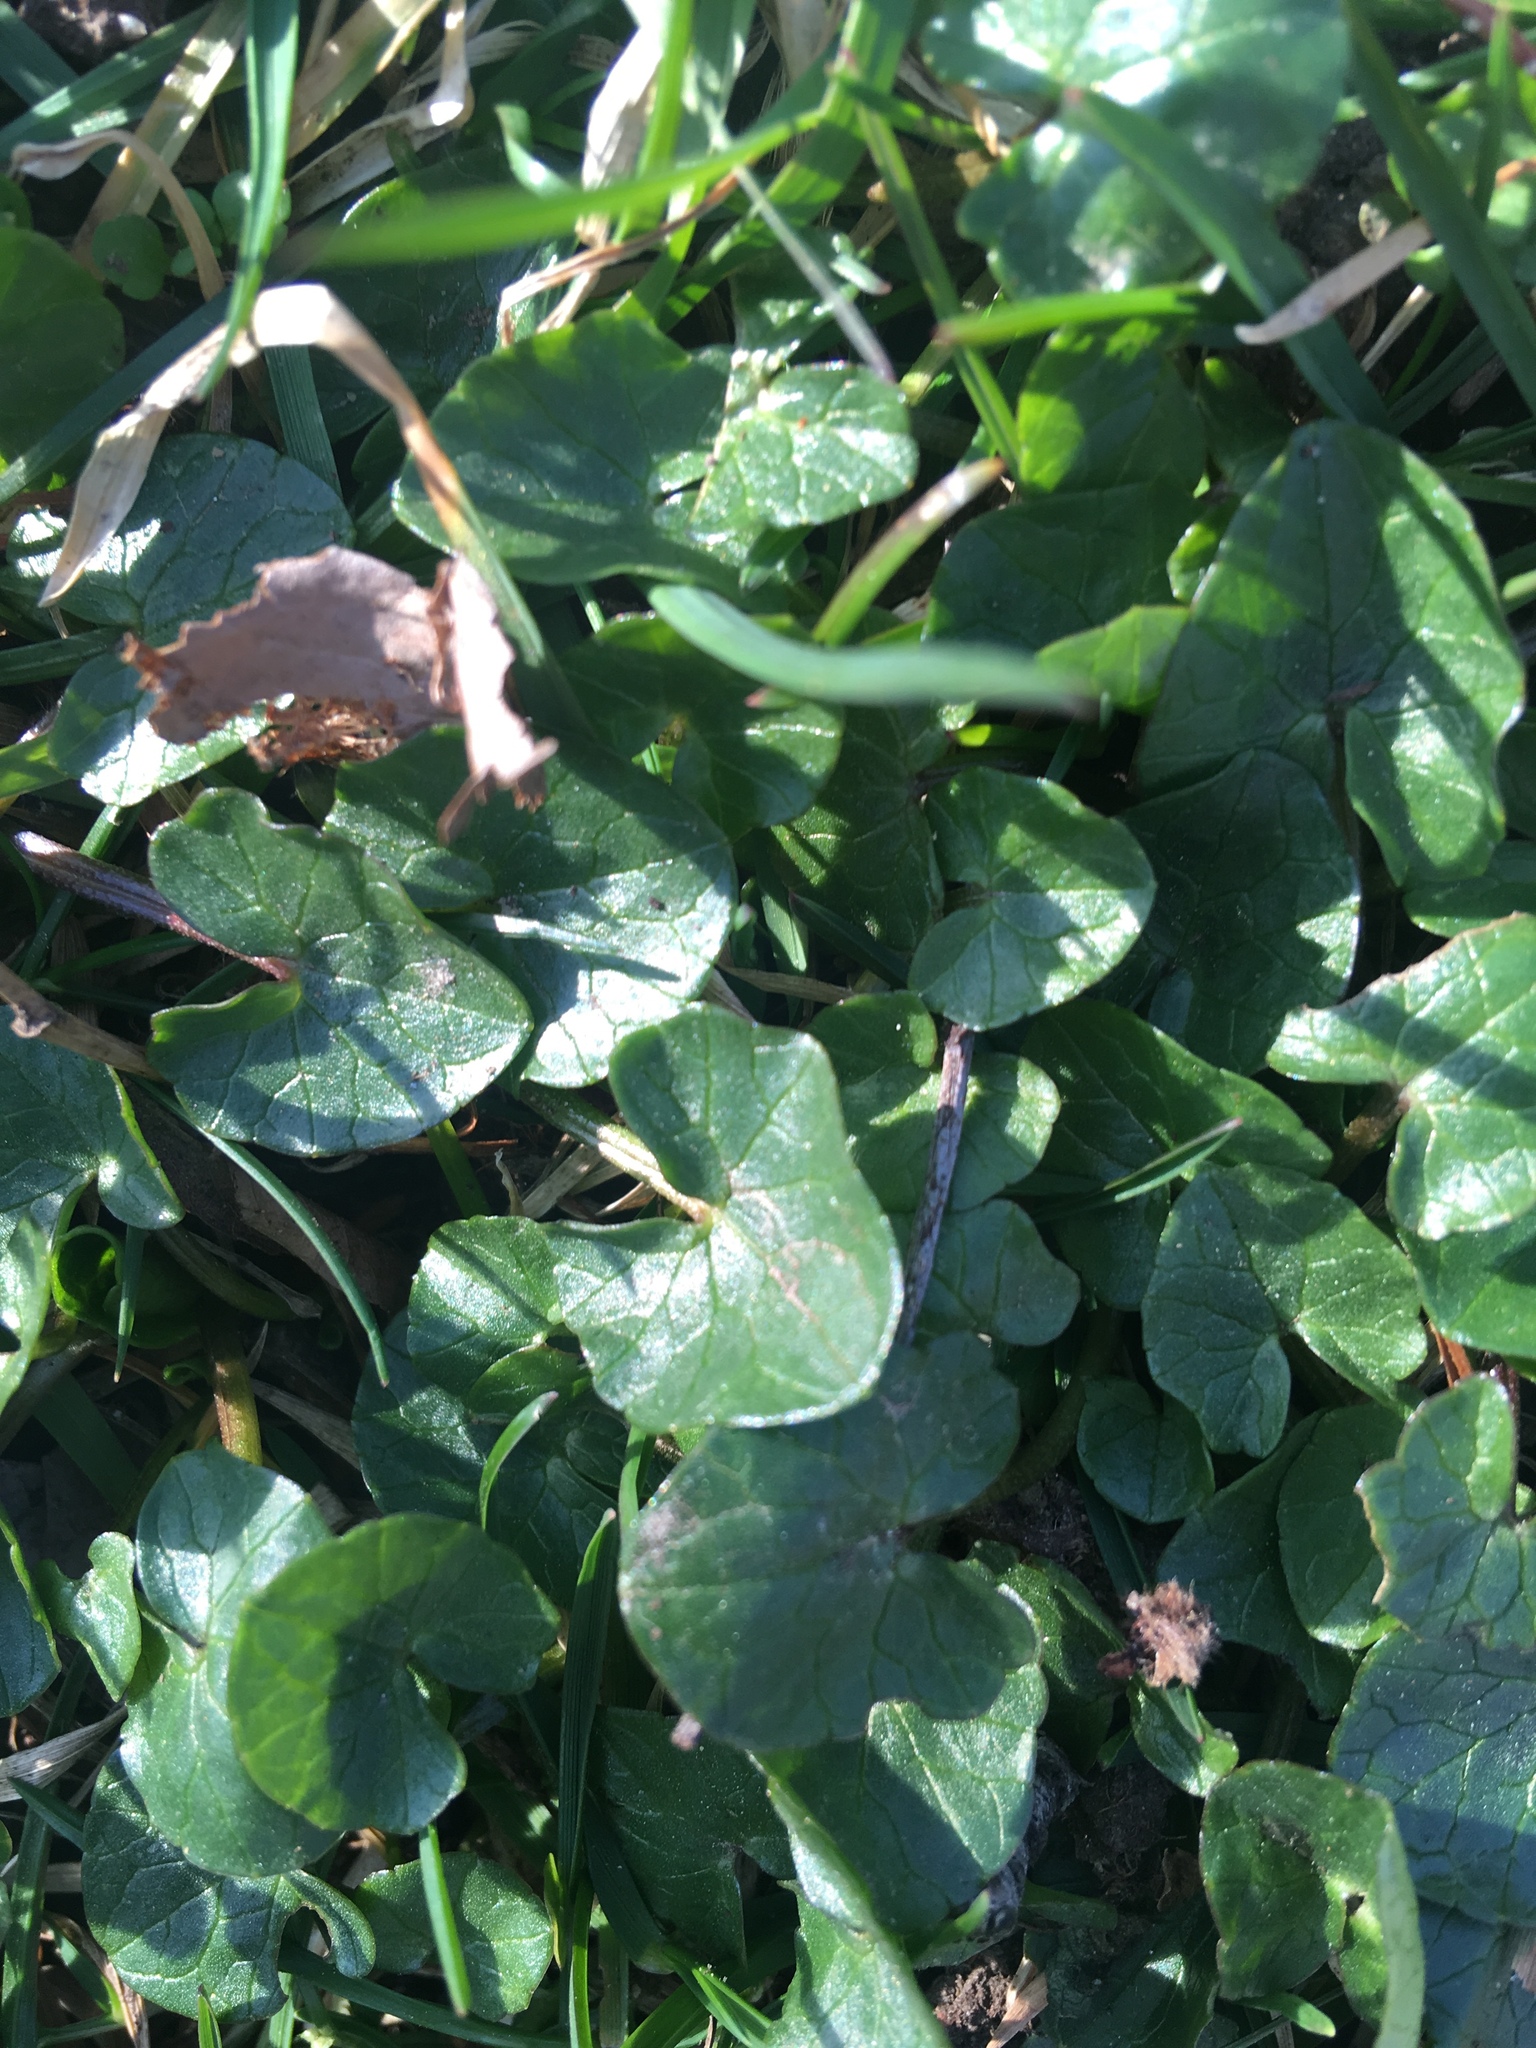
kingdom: Plantae
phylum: Tracheophyta
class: Magnoliopsida
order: Ranunculales
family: Ranunculaceae
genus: Ficaria
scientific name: Ficaria verna
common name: Lesser celandine
